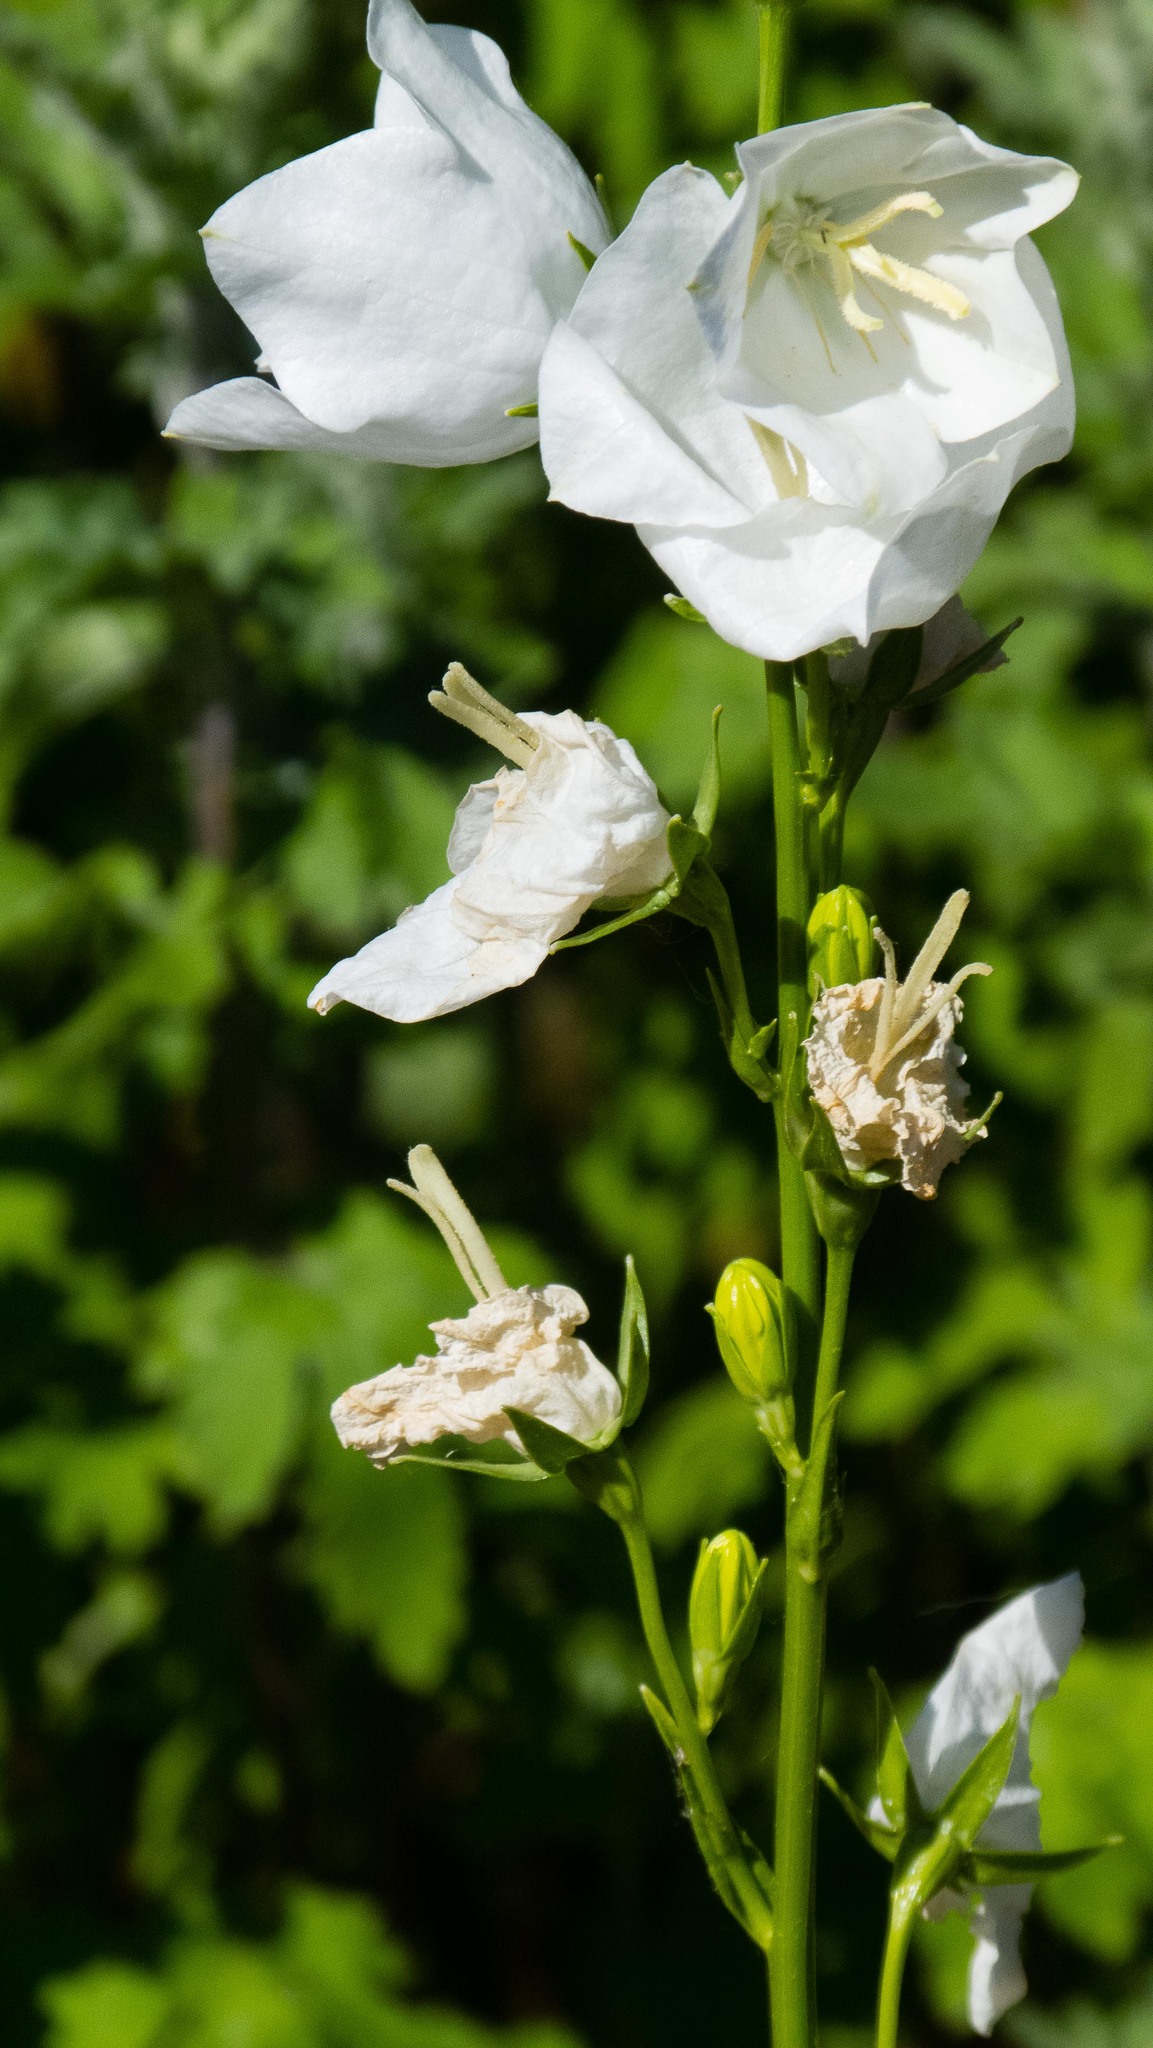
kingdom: Plantae
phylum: Tracheophyta
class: Magnoliopsida
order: Asterales
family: Campanulaceae
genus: Campanula
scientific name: Campanula persicifolia
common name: Peach-leaved bellflower
